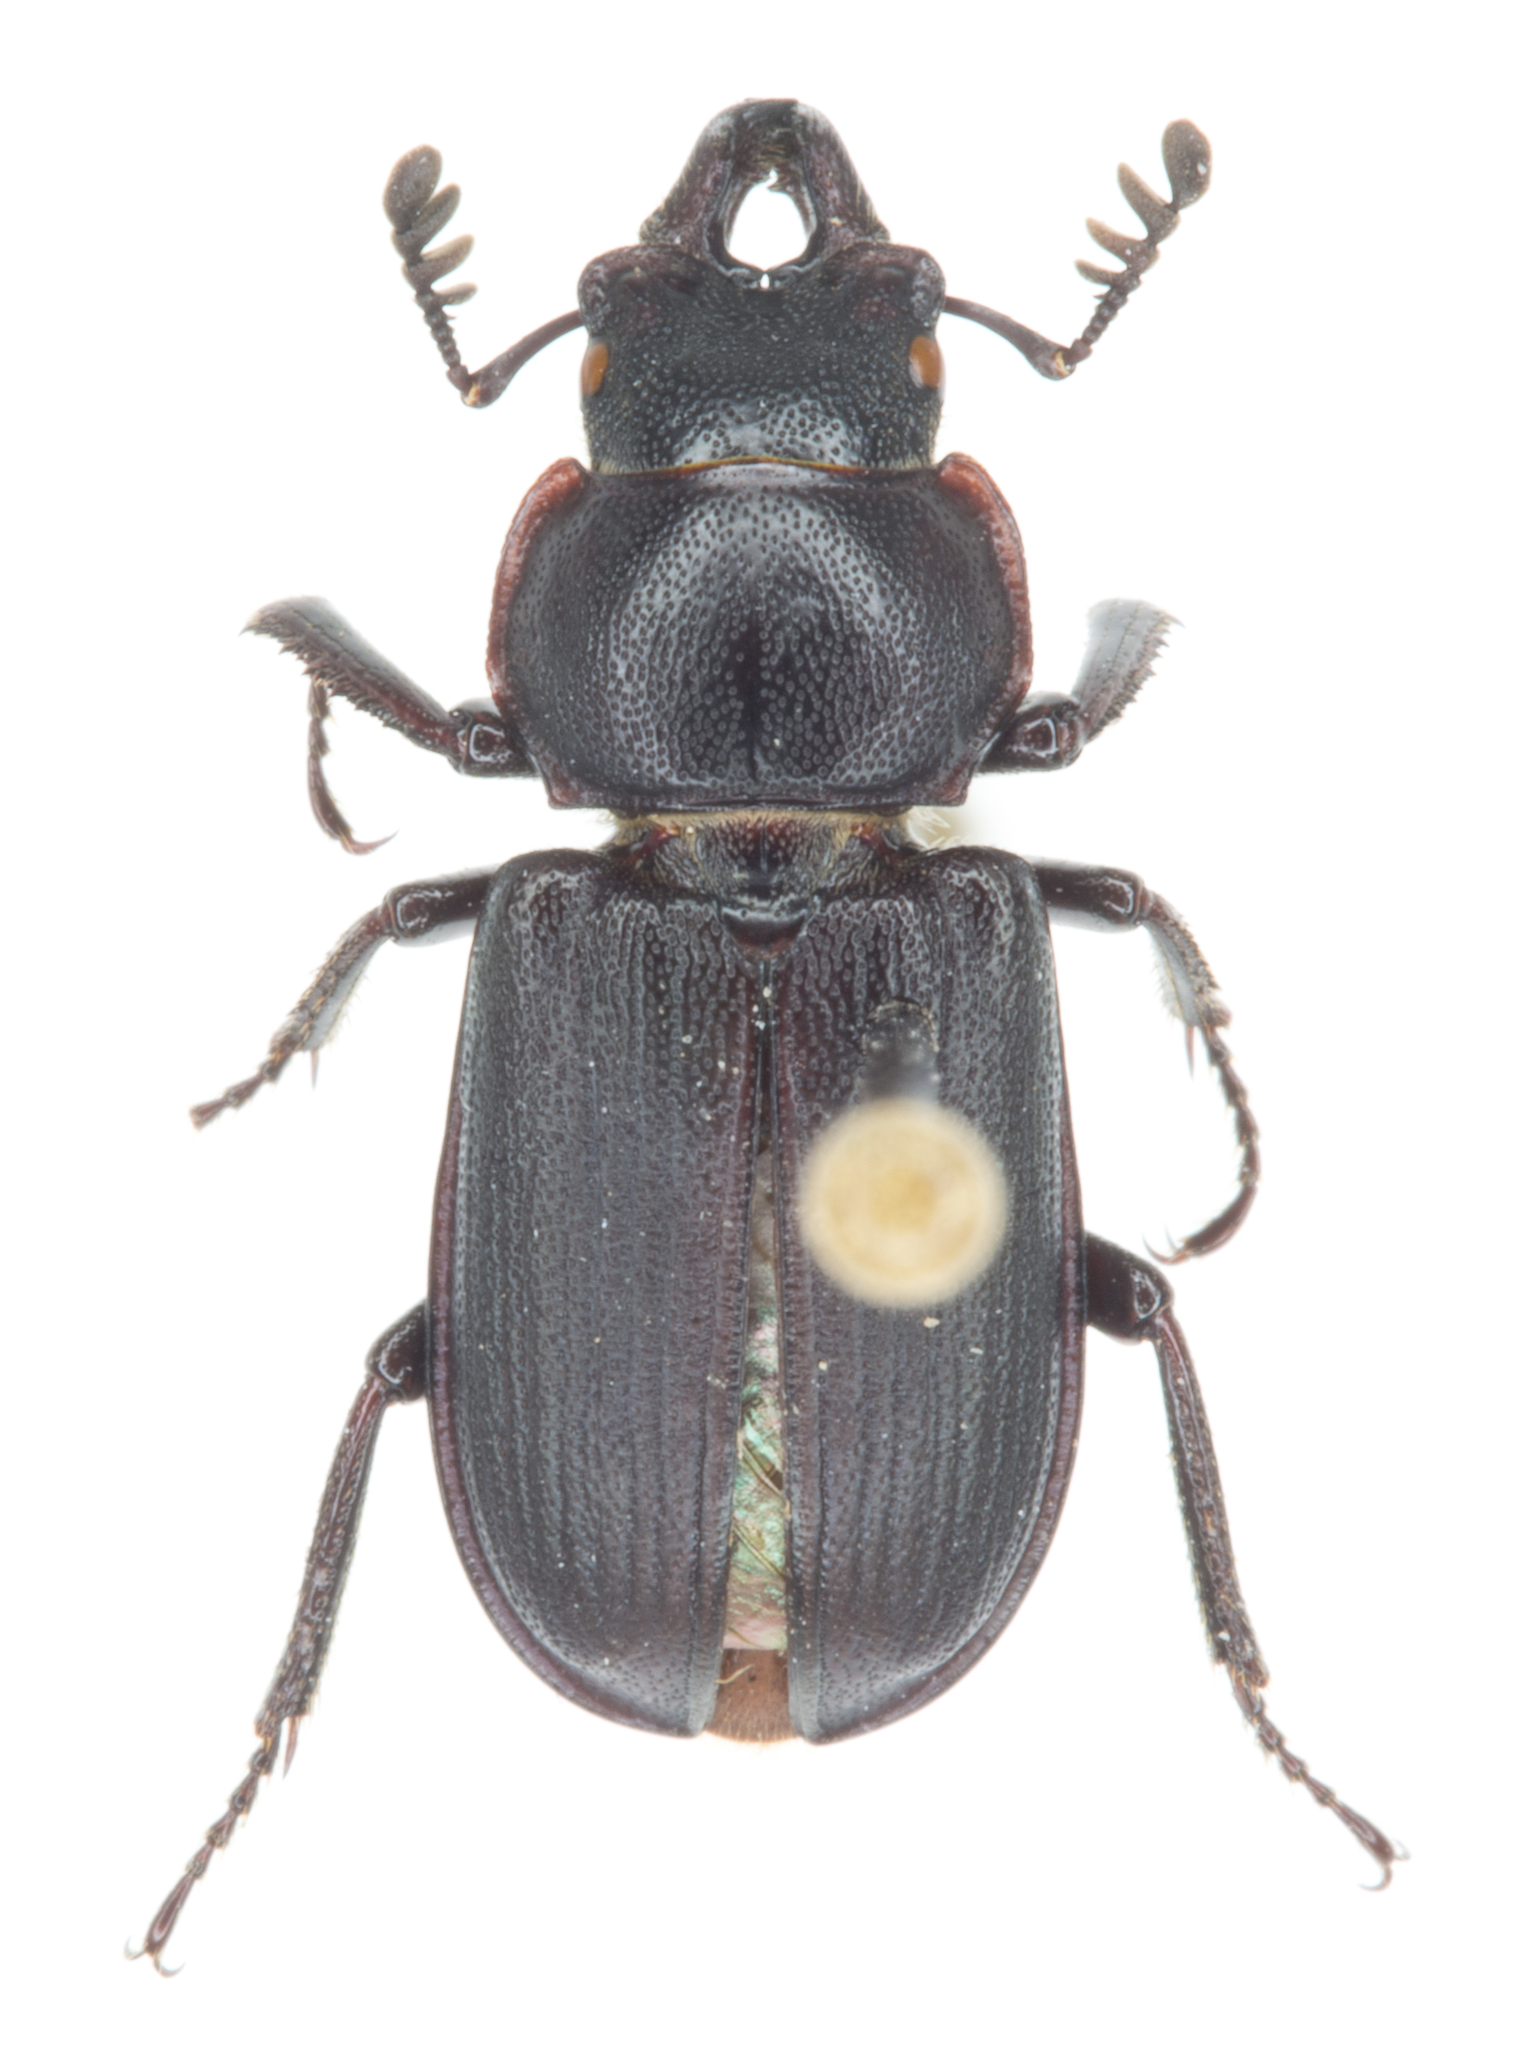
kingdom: Animalia
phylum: Arthropoda
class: Insecta
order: Coleoptera
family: Lucanidae
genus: Platycerus
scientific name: Platycerus marginalis
